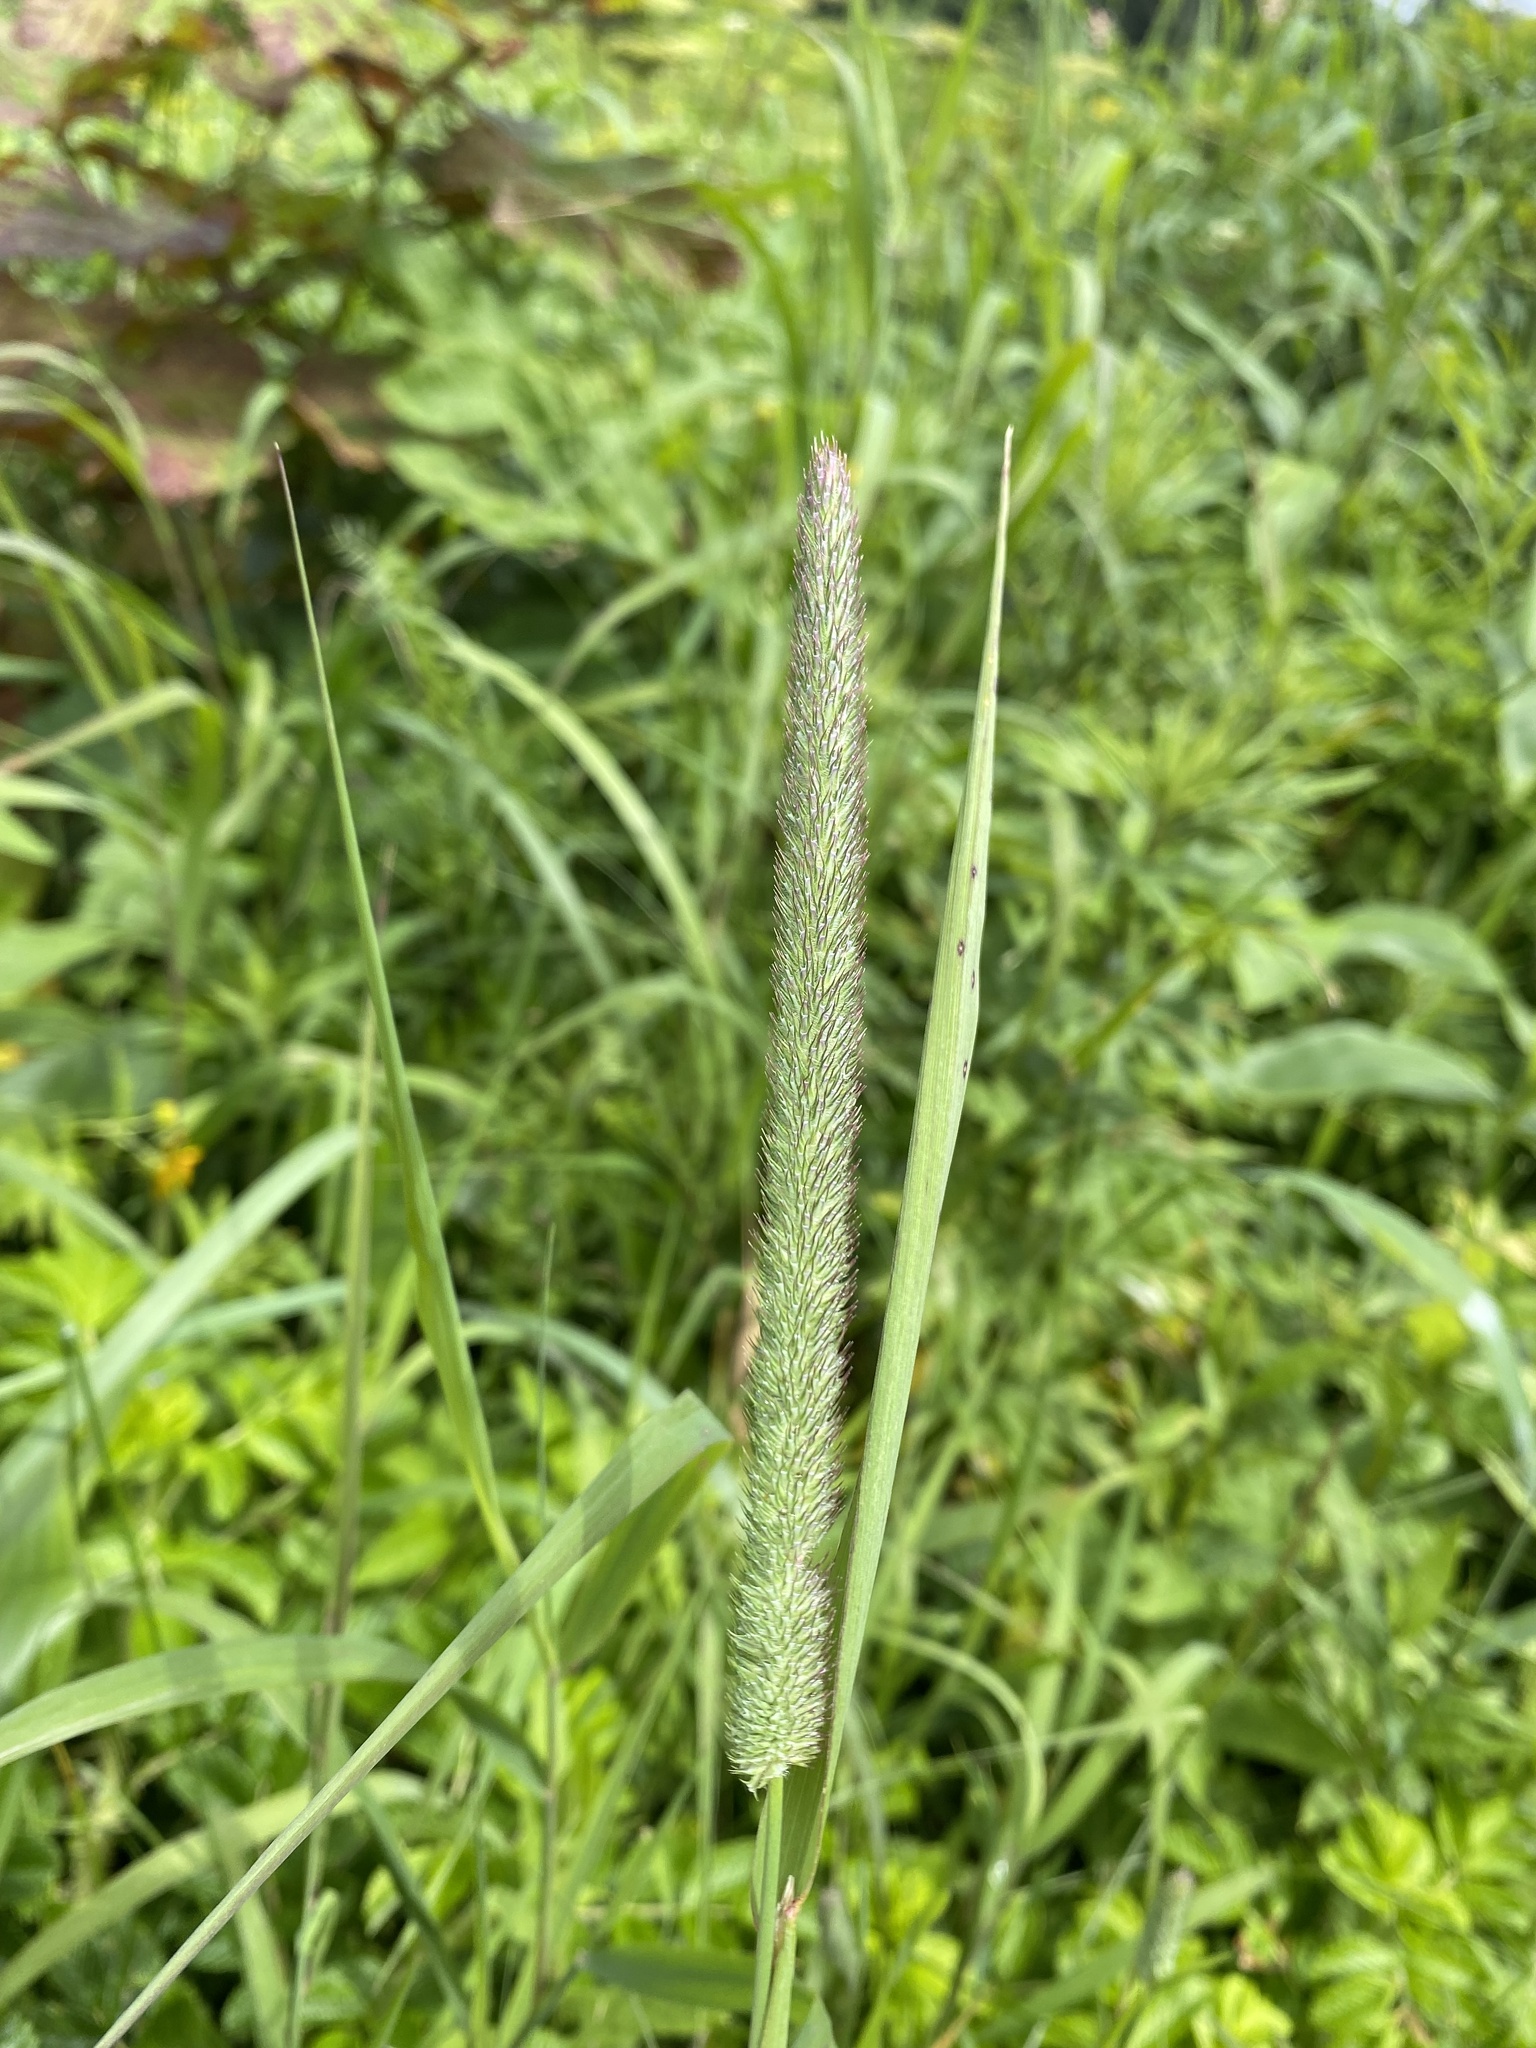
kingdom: Plantae
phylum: Tracheophyta
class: Liliopsida
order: Poales
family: Poaceae
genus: Phleum
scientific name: Phleum pratense
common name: Timothy grass
